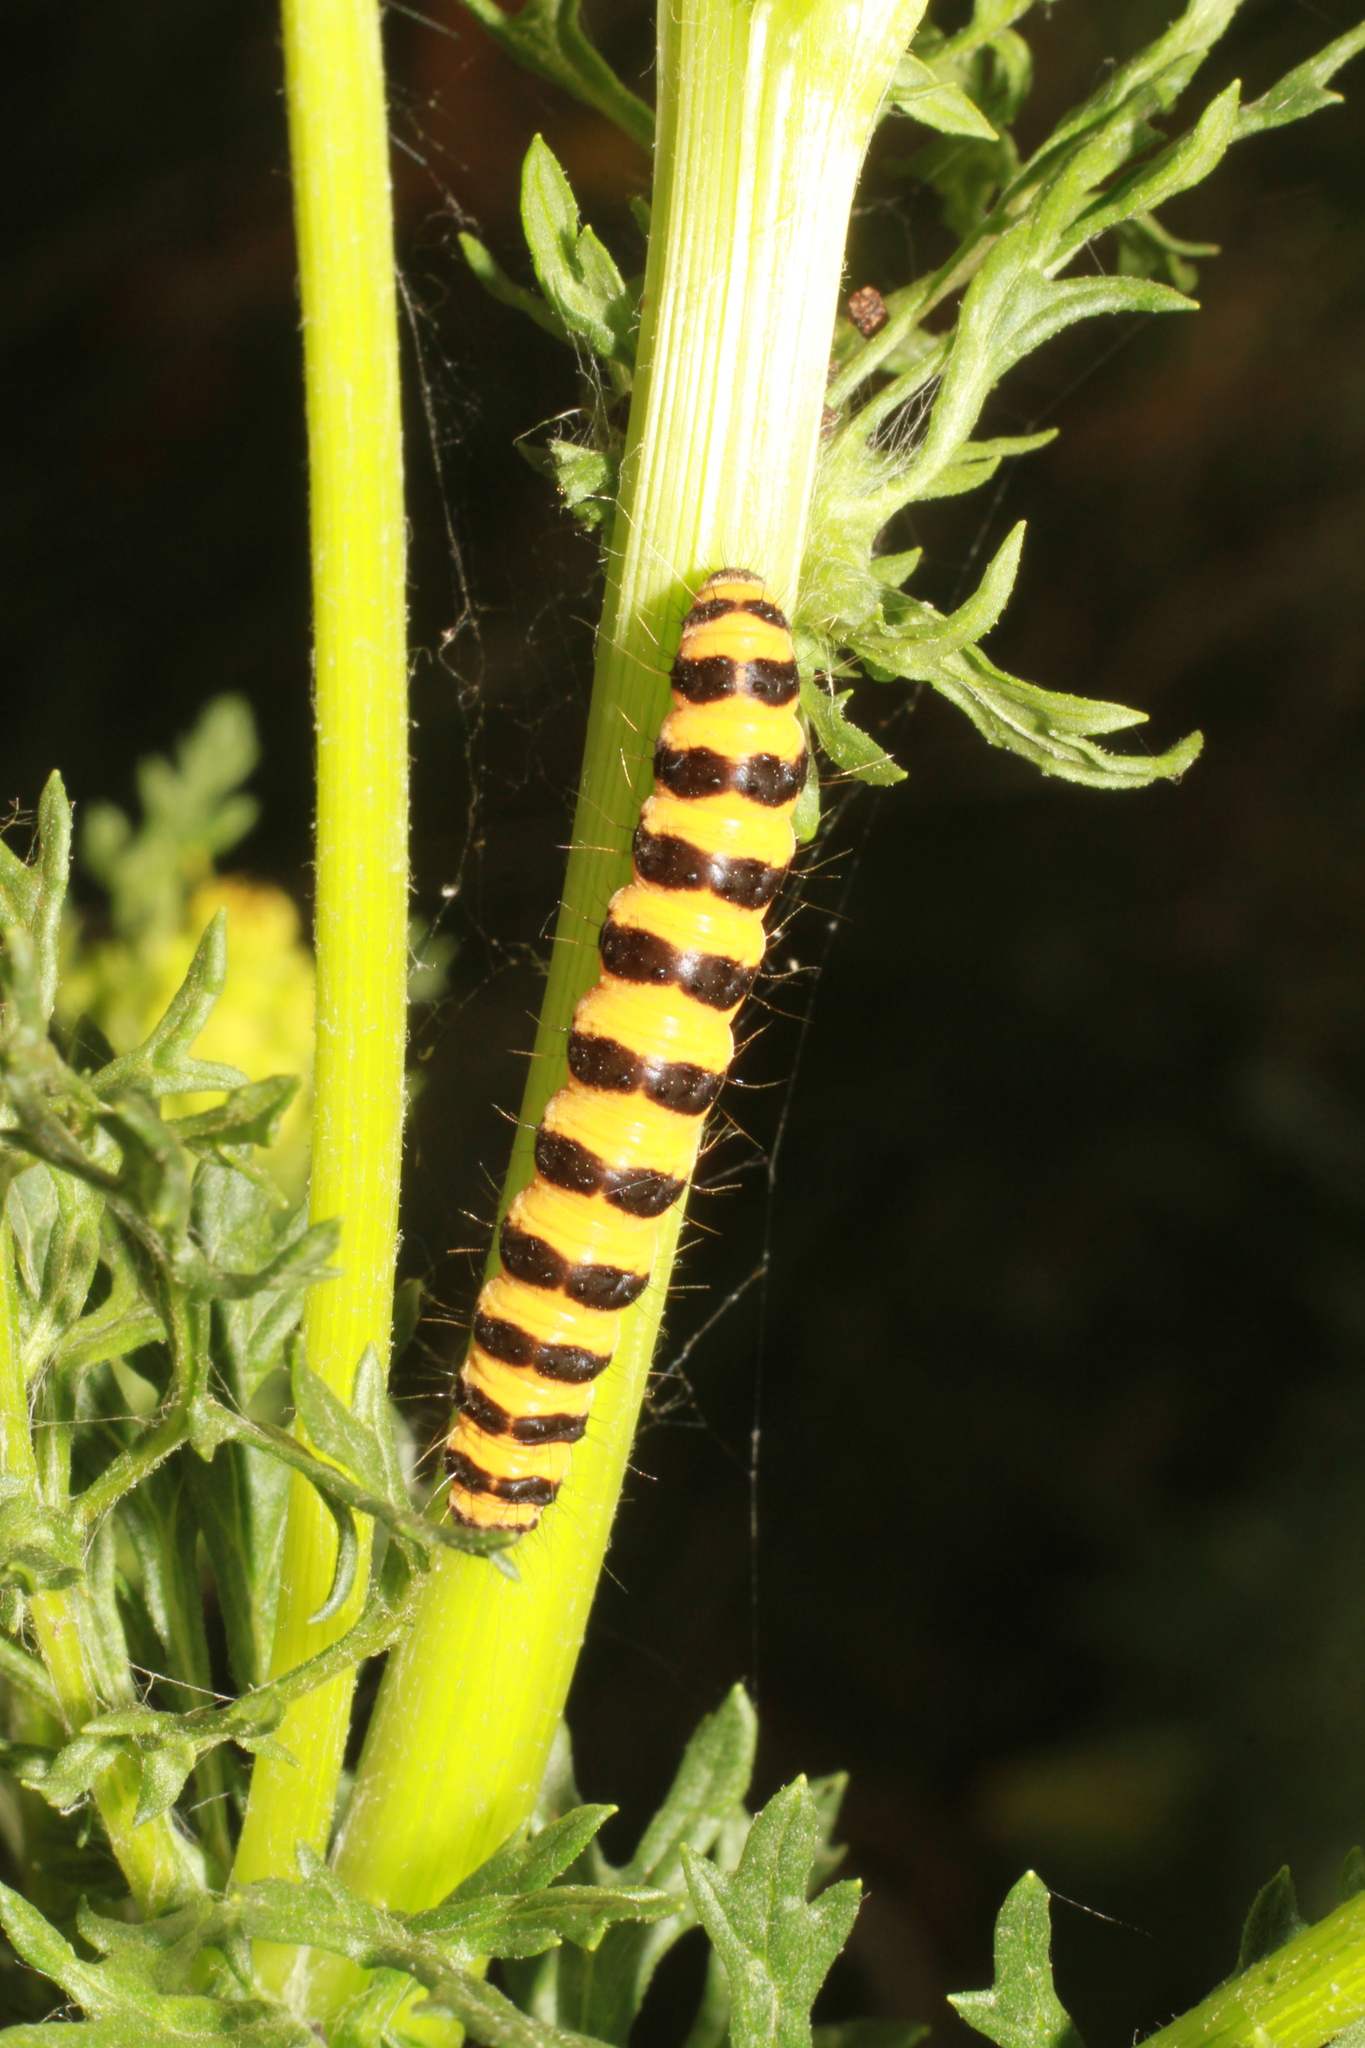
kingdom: Animalia
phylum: Arthropoda
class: Insecta
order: Lepidoptera
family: Erebidae
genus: Tyria
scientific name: Tyria jacobaeae
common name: Cinnabar
